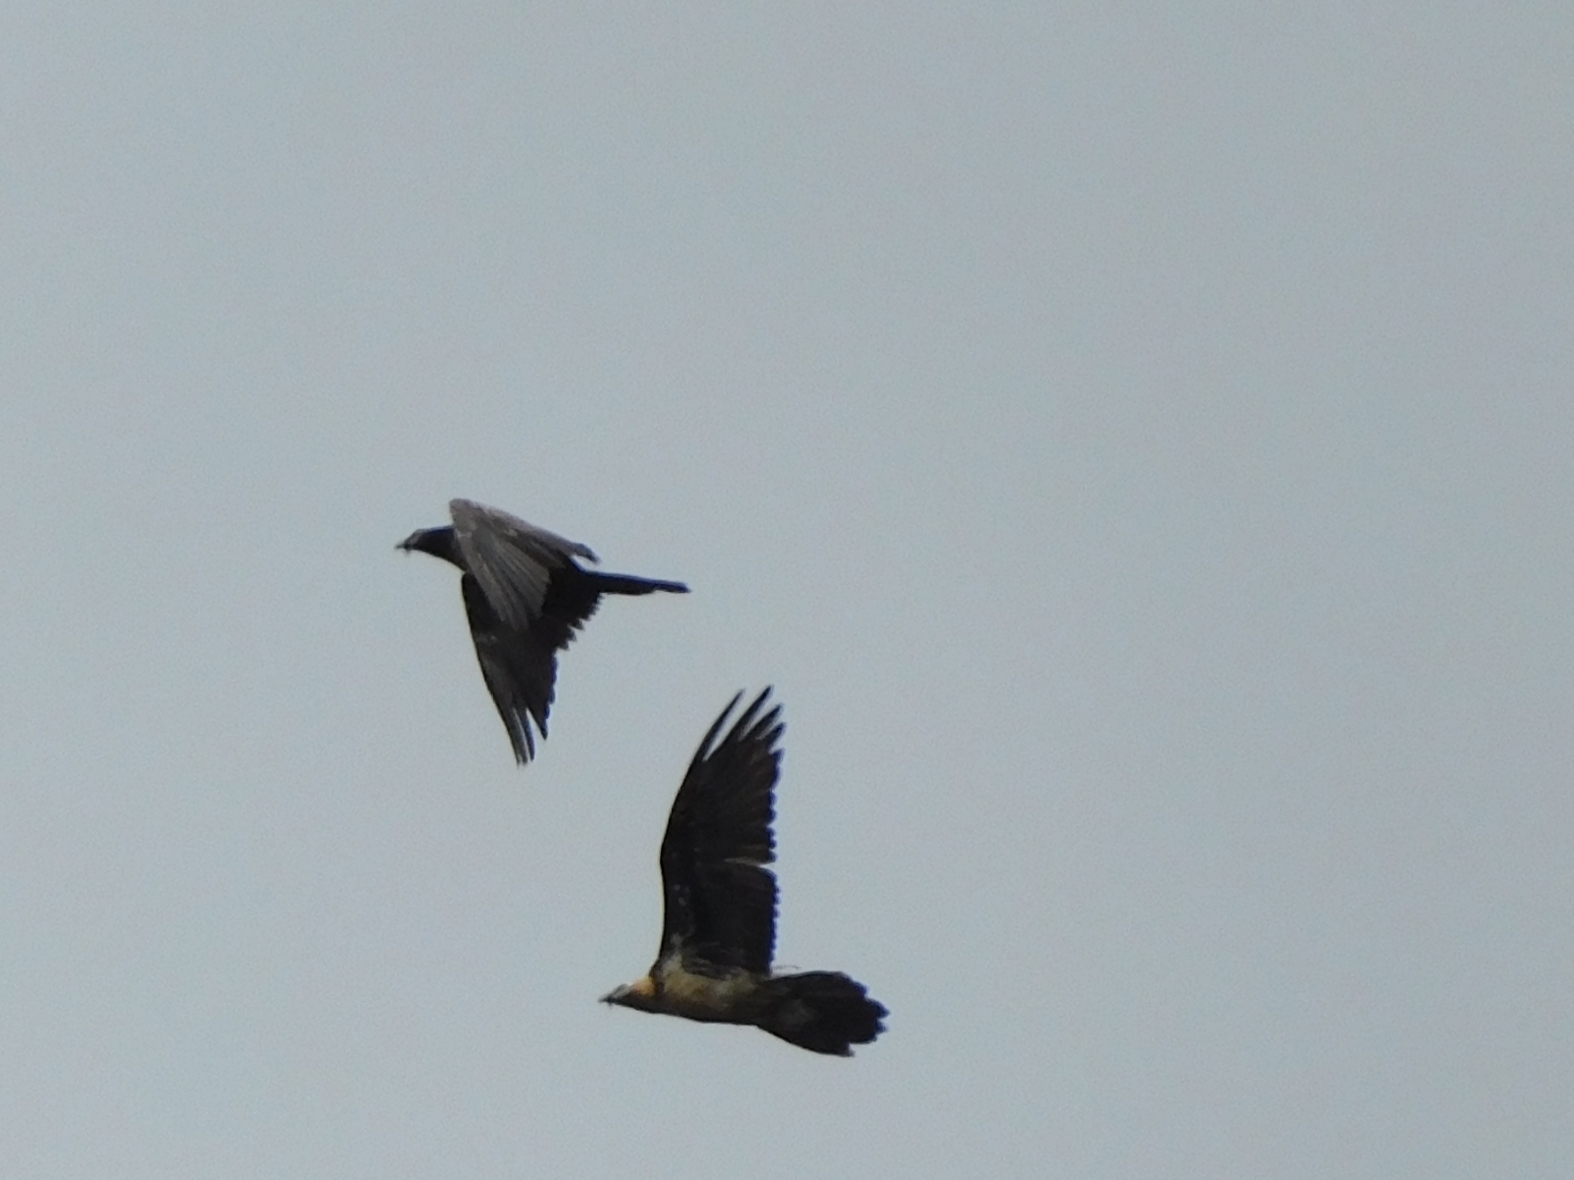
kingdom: Animalia
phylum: Chordata
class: Aves
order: Accipitriformes
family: Accipitridae
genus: Gypaetus
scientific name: Gypaetus barbatus
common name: Bearded vulture
